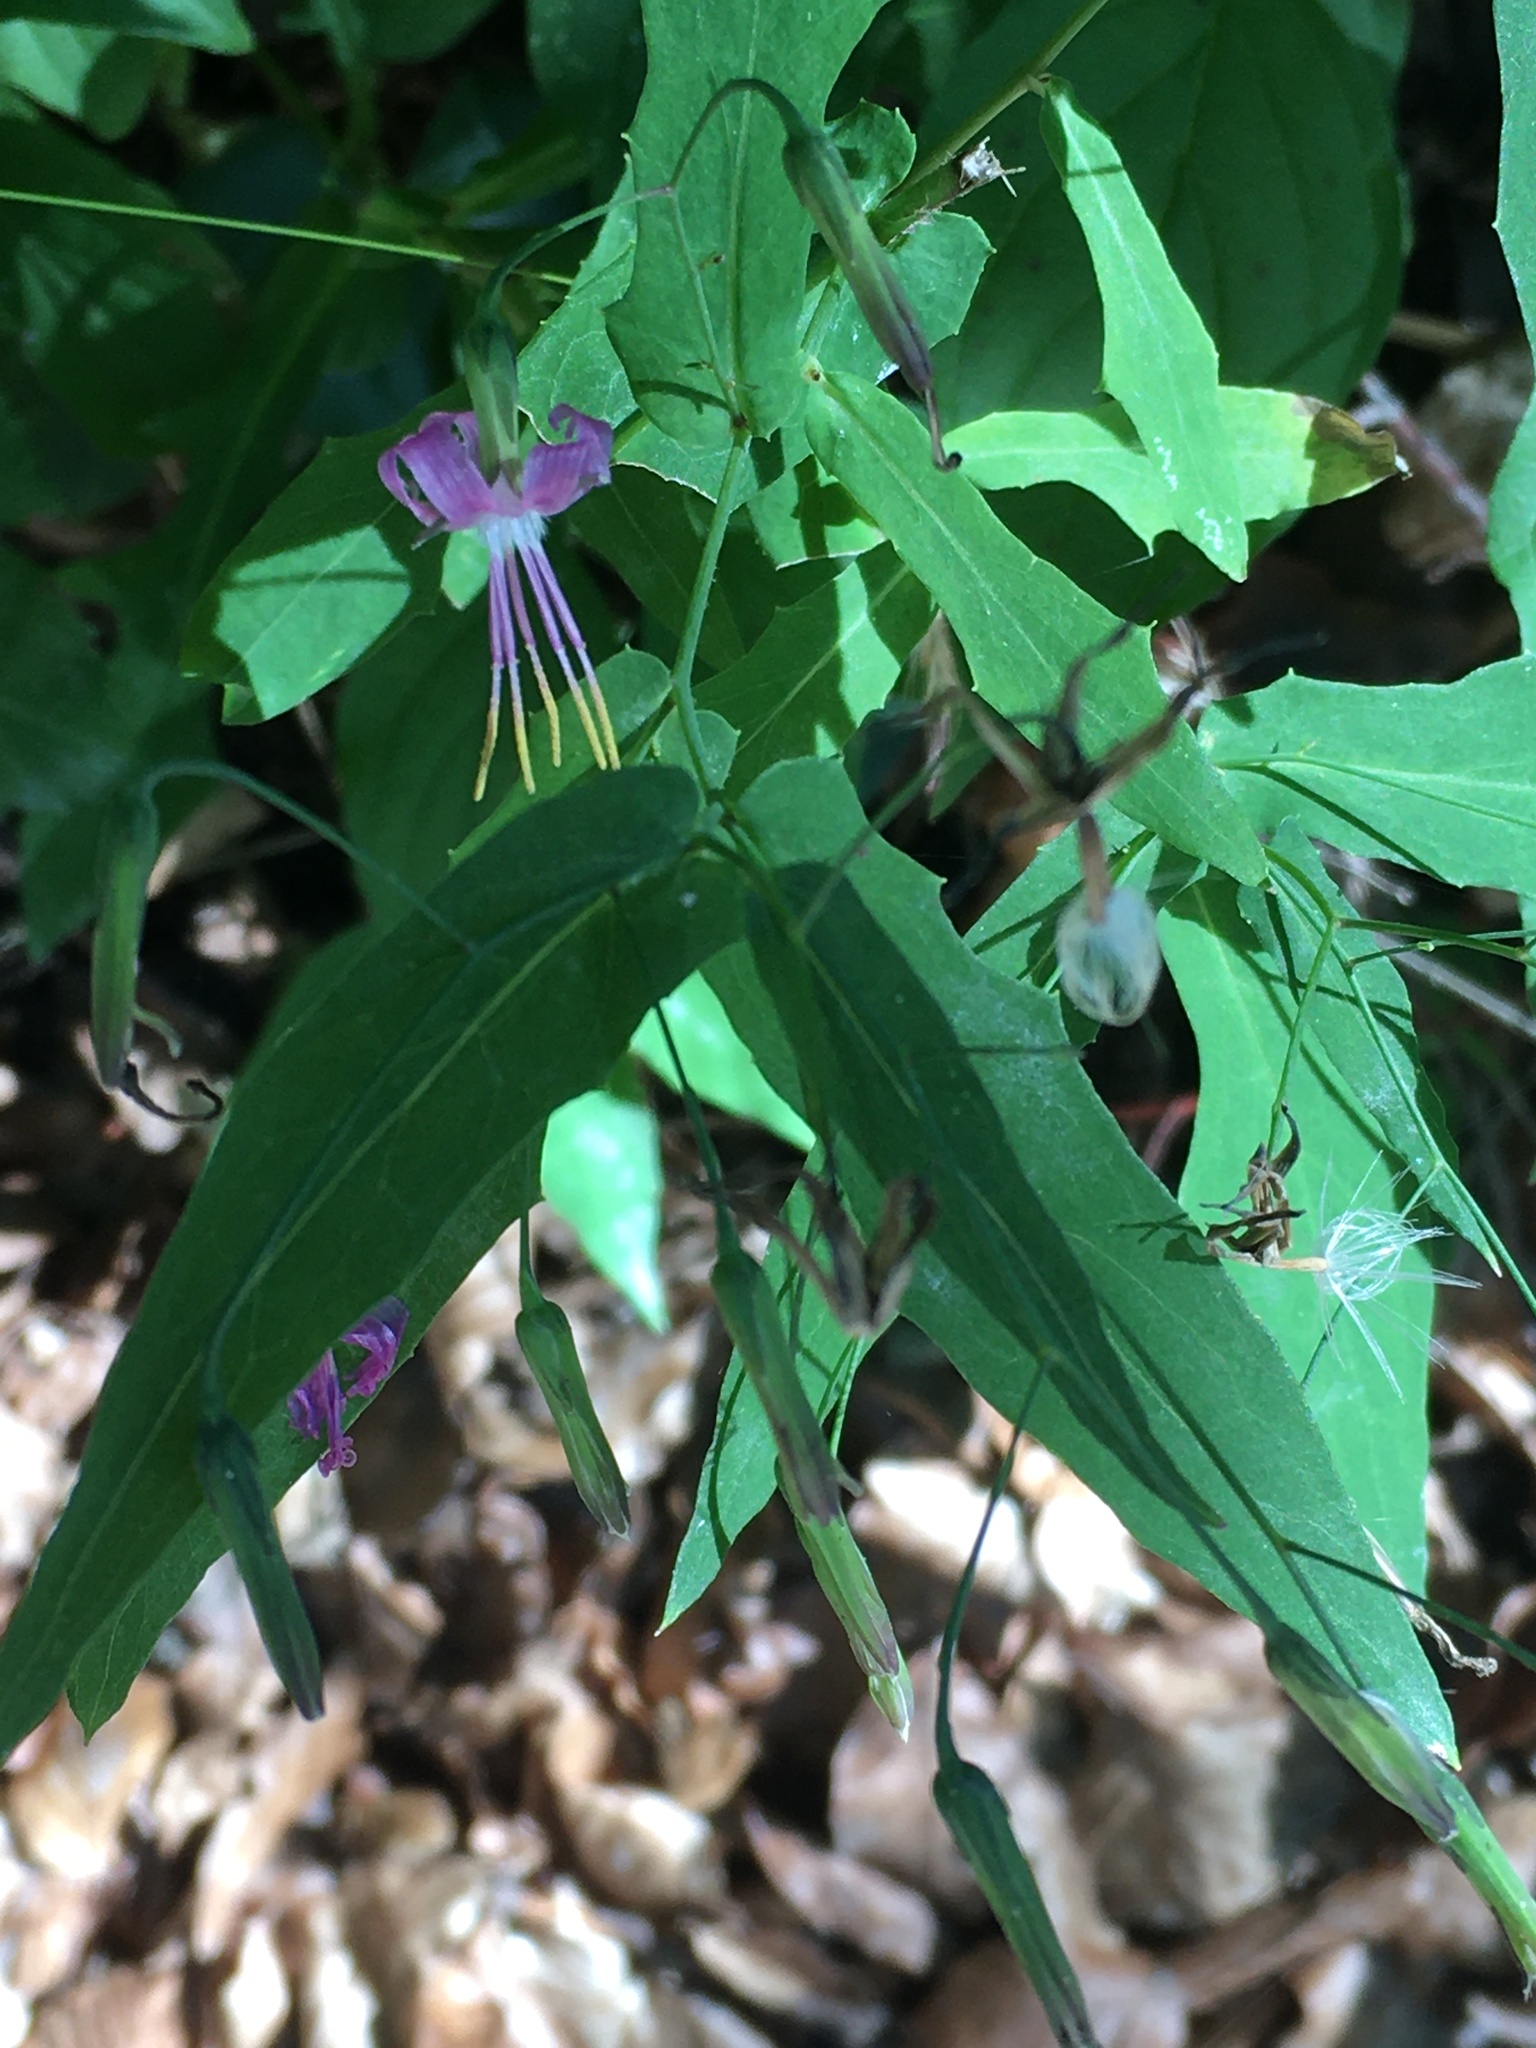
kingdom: Plantae
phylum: Tracheophyta
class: Magnoliopsida
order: Asterales
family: Asteraceae
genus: Prenanthes
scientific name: Prenanthes purpurea
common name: Purple lettuce
